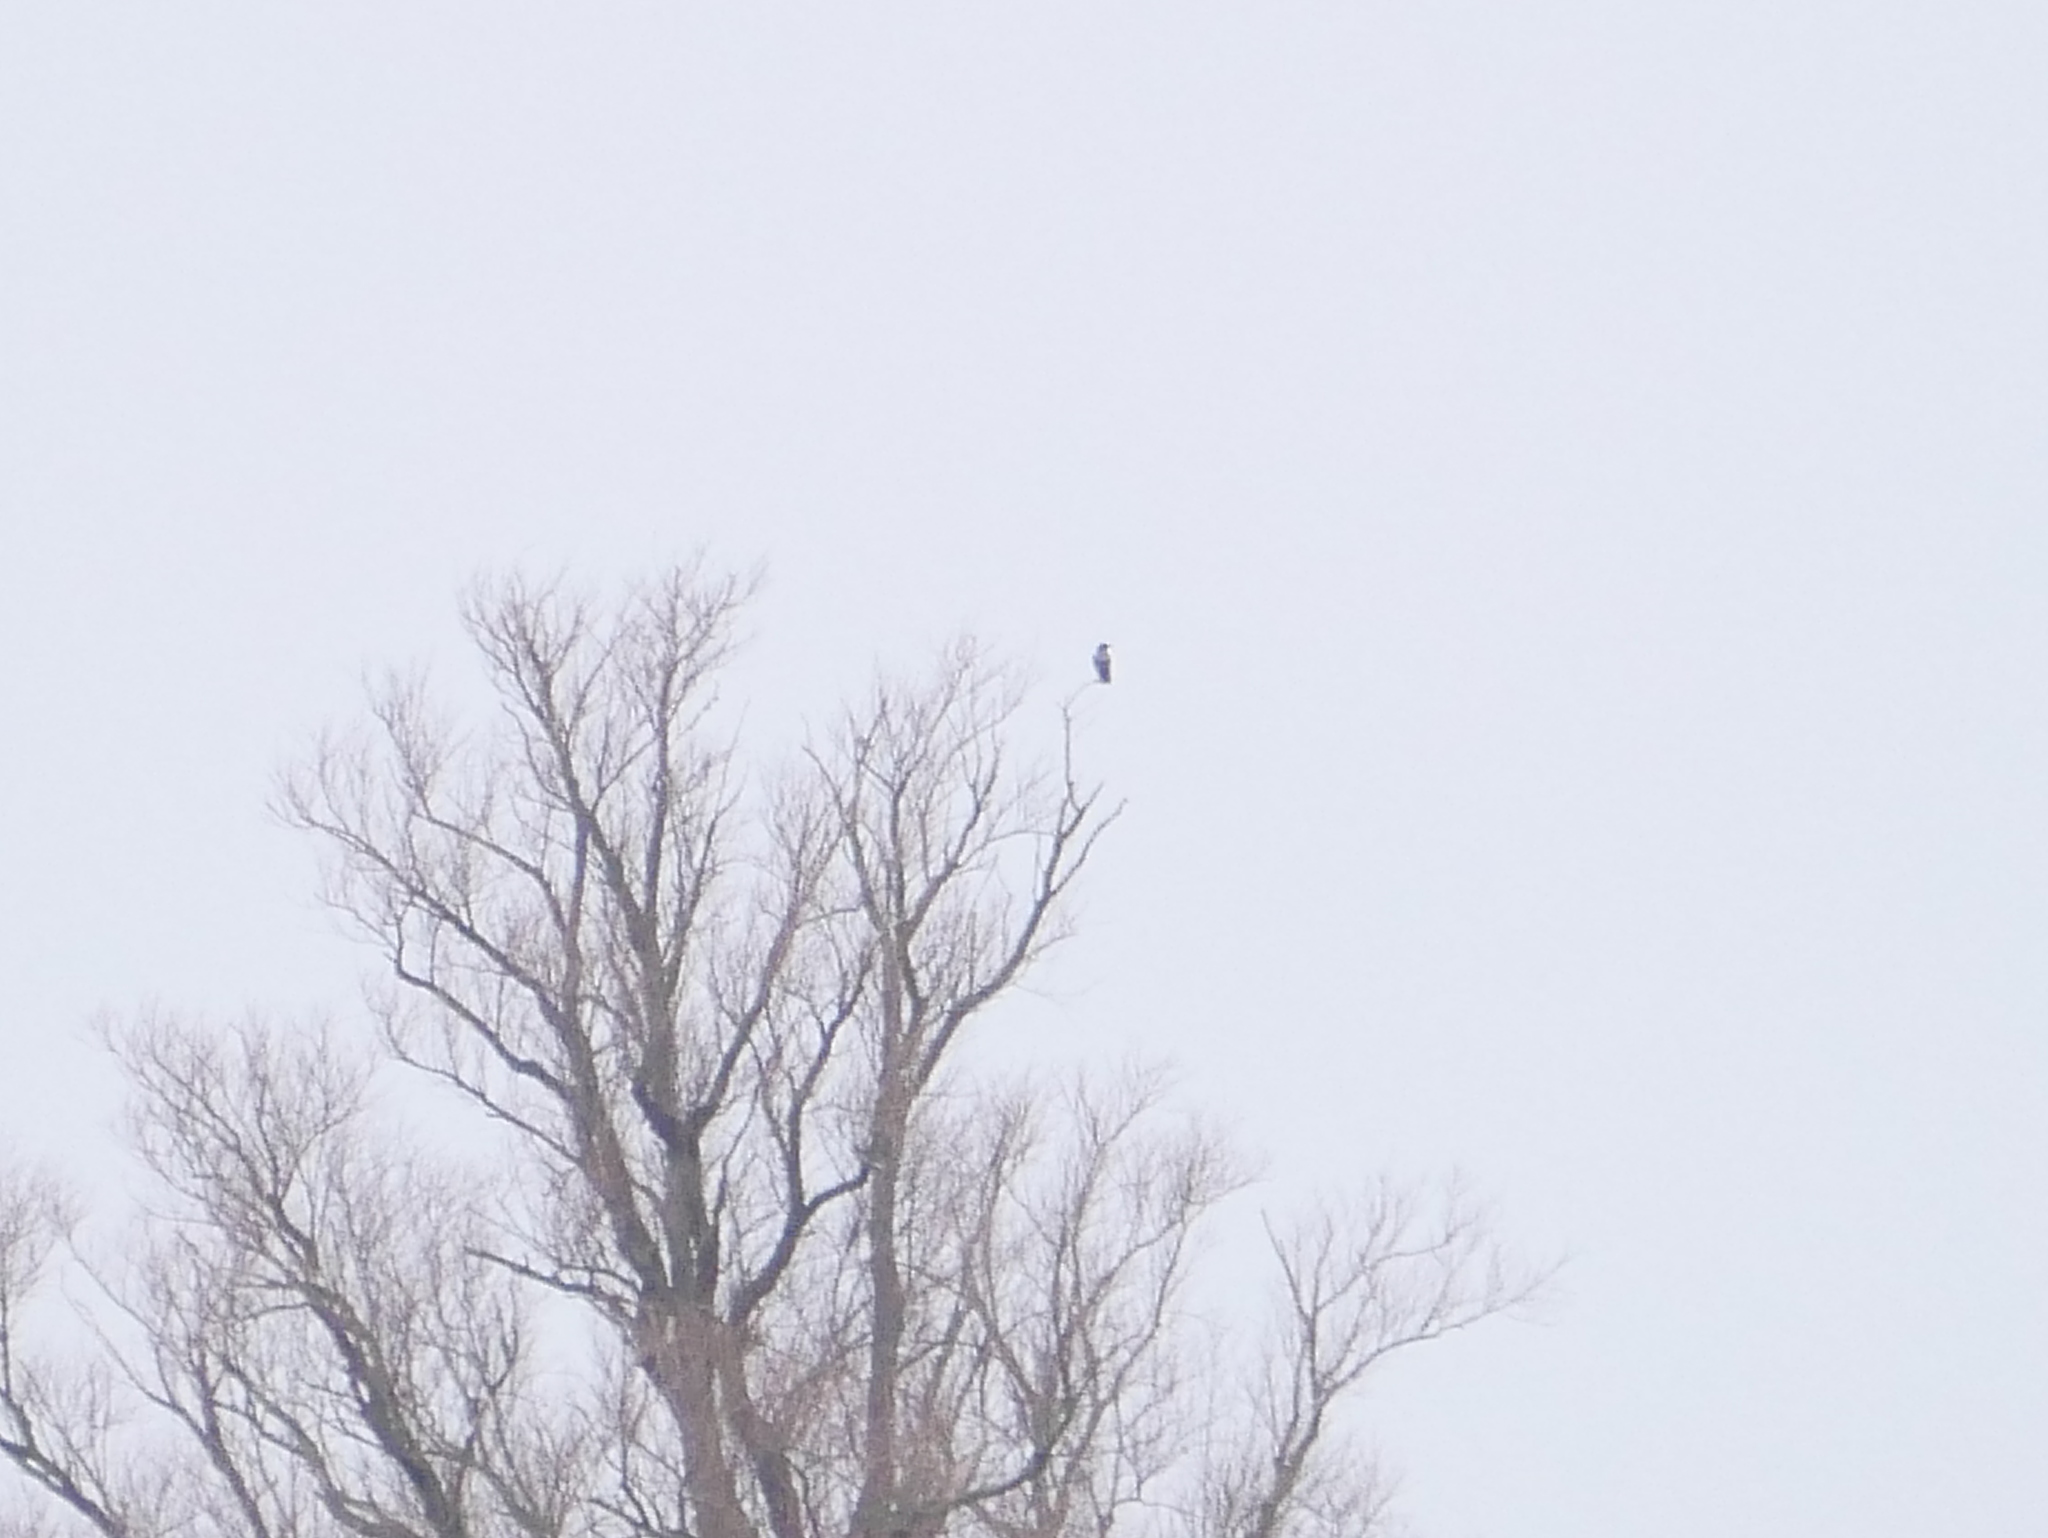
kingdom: Animalia
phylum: Chordata
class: Aves
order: Passeriformes
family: Corvidae
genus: Corvus
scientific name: Corvus cornix
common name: Hooded crow
